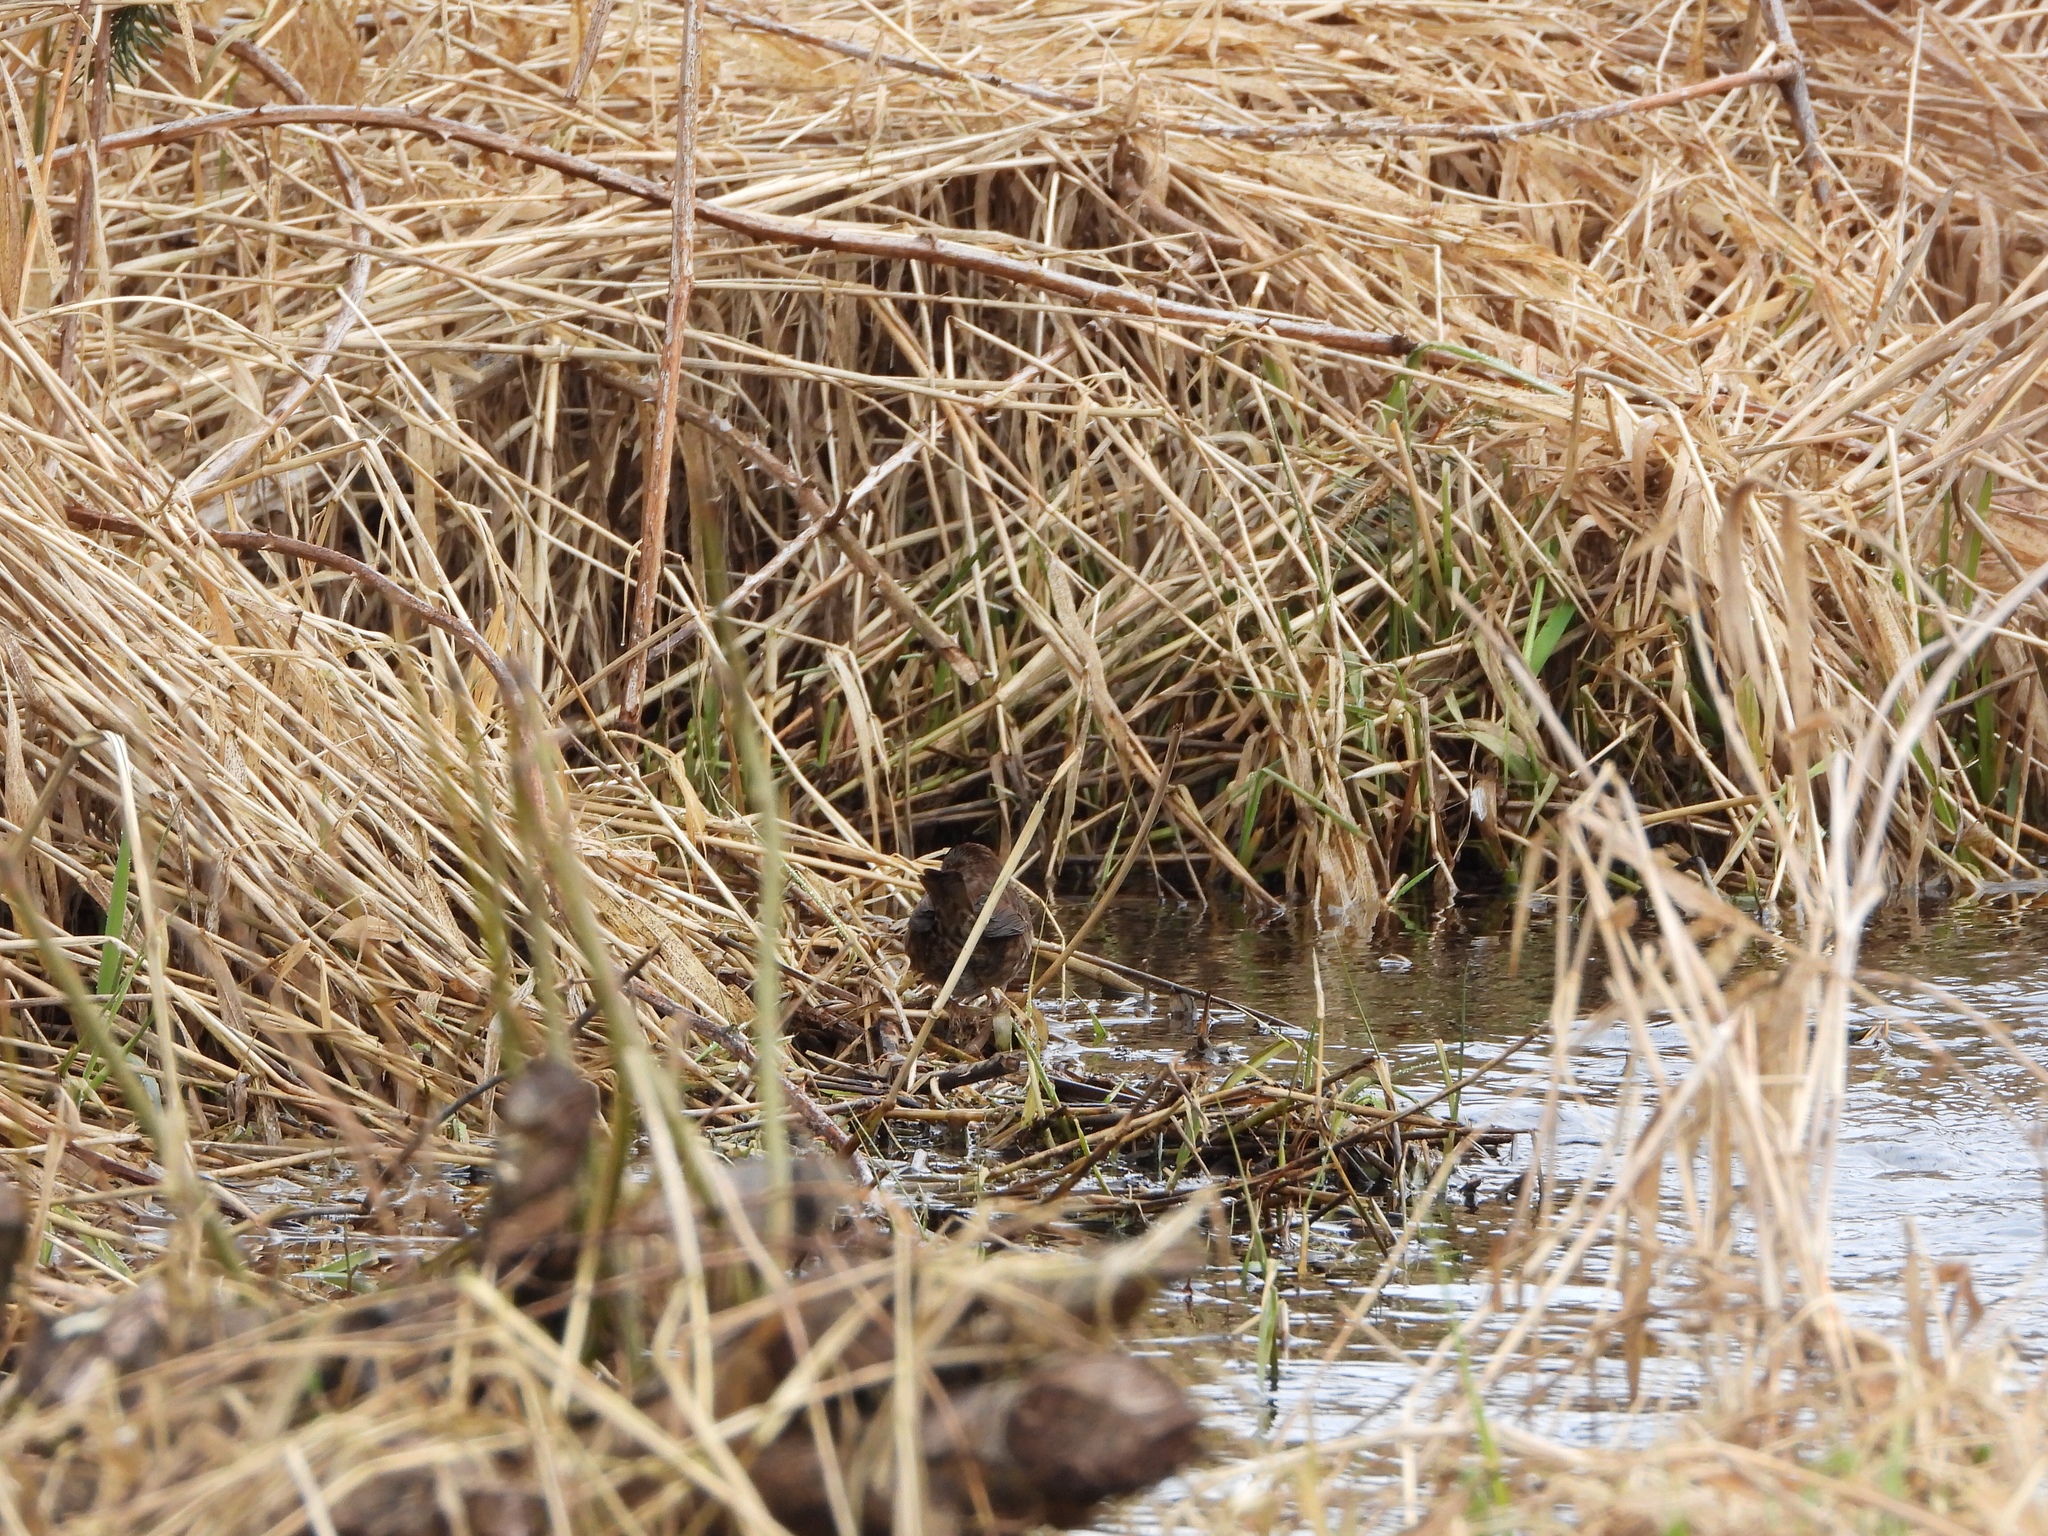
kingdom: Animalia
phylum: Chordata
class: Aves
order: Passeriformes
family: Passerellidae
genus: Melospiza
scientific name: Melospiza melodia
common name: Song sparrow
